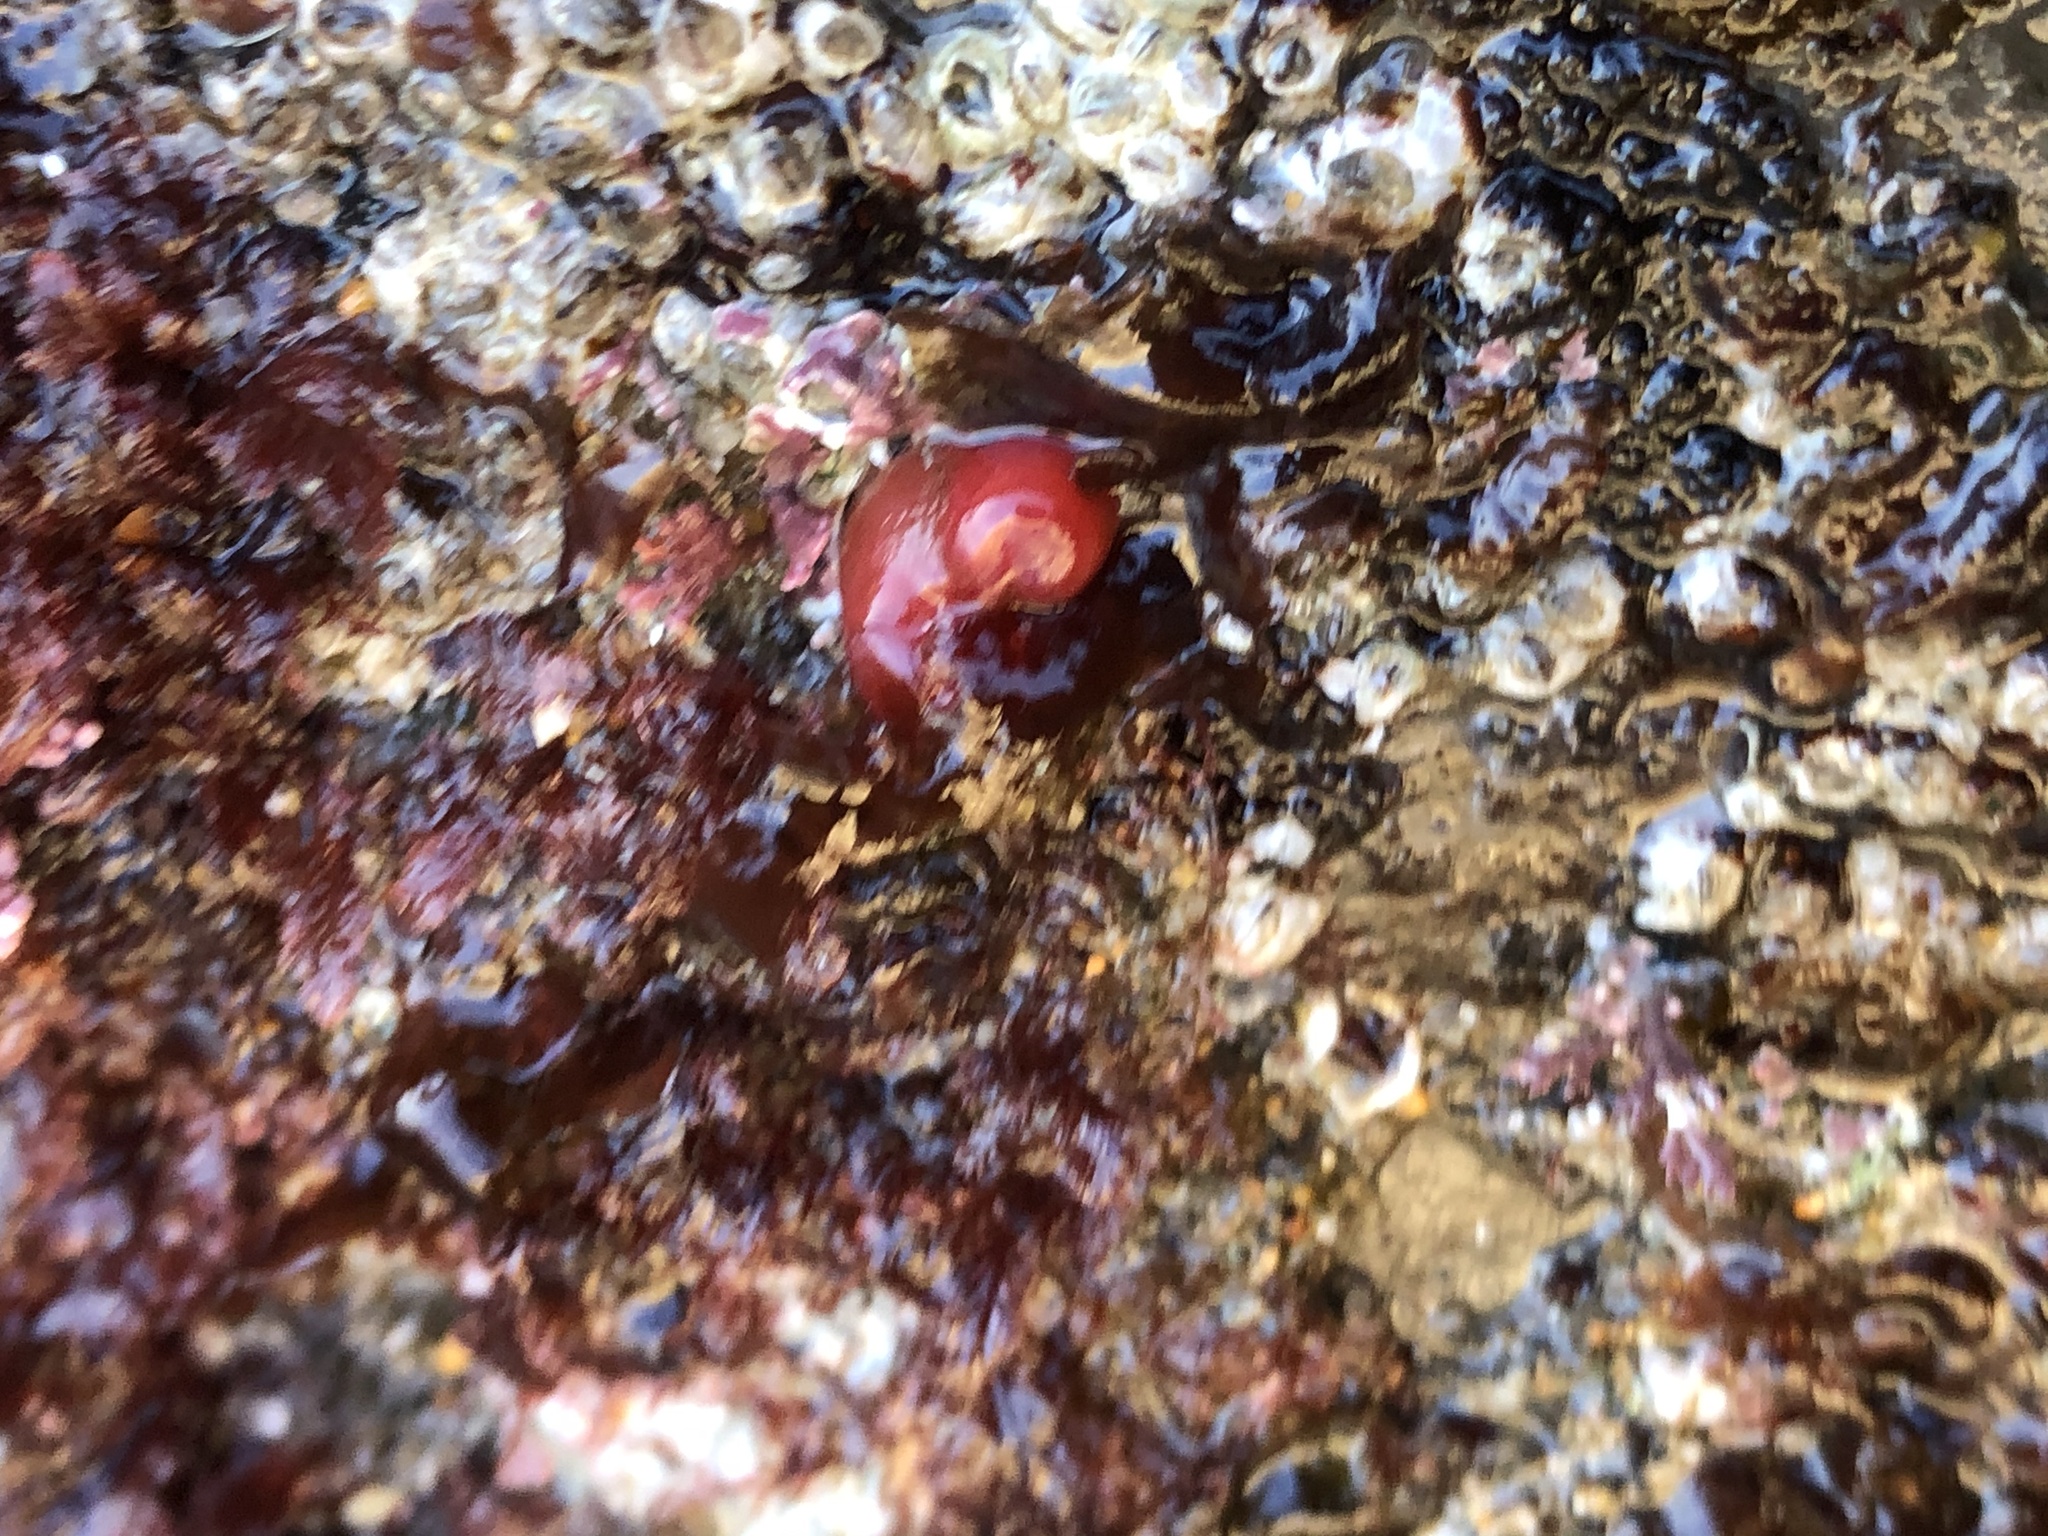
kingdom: Animalia
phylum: Mollusca
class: Bivalvia
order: Adapedonta
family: Hiatellidae
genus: Hiatella
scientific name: Hiatella arctica
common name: Arctic hiatella
